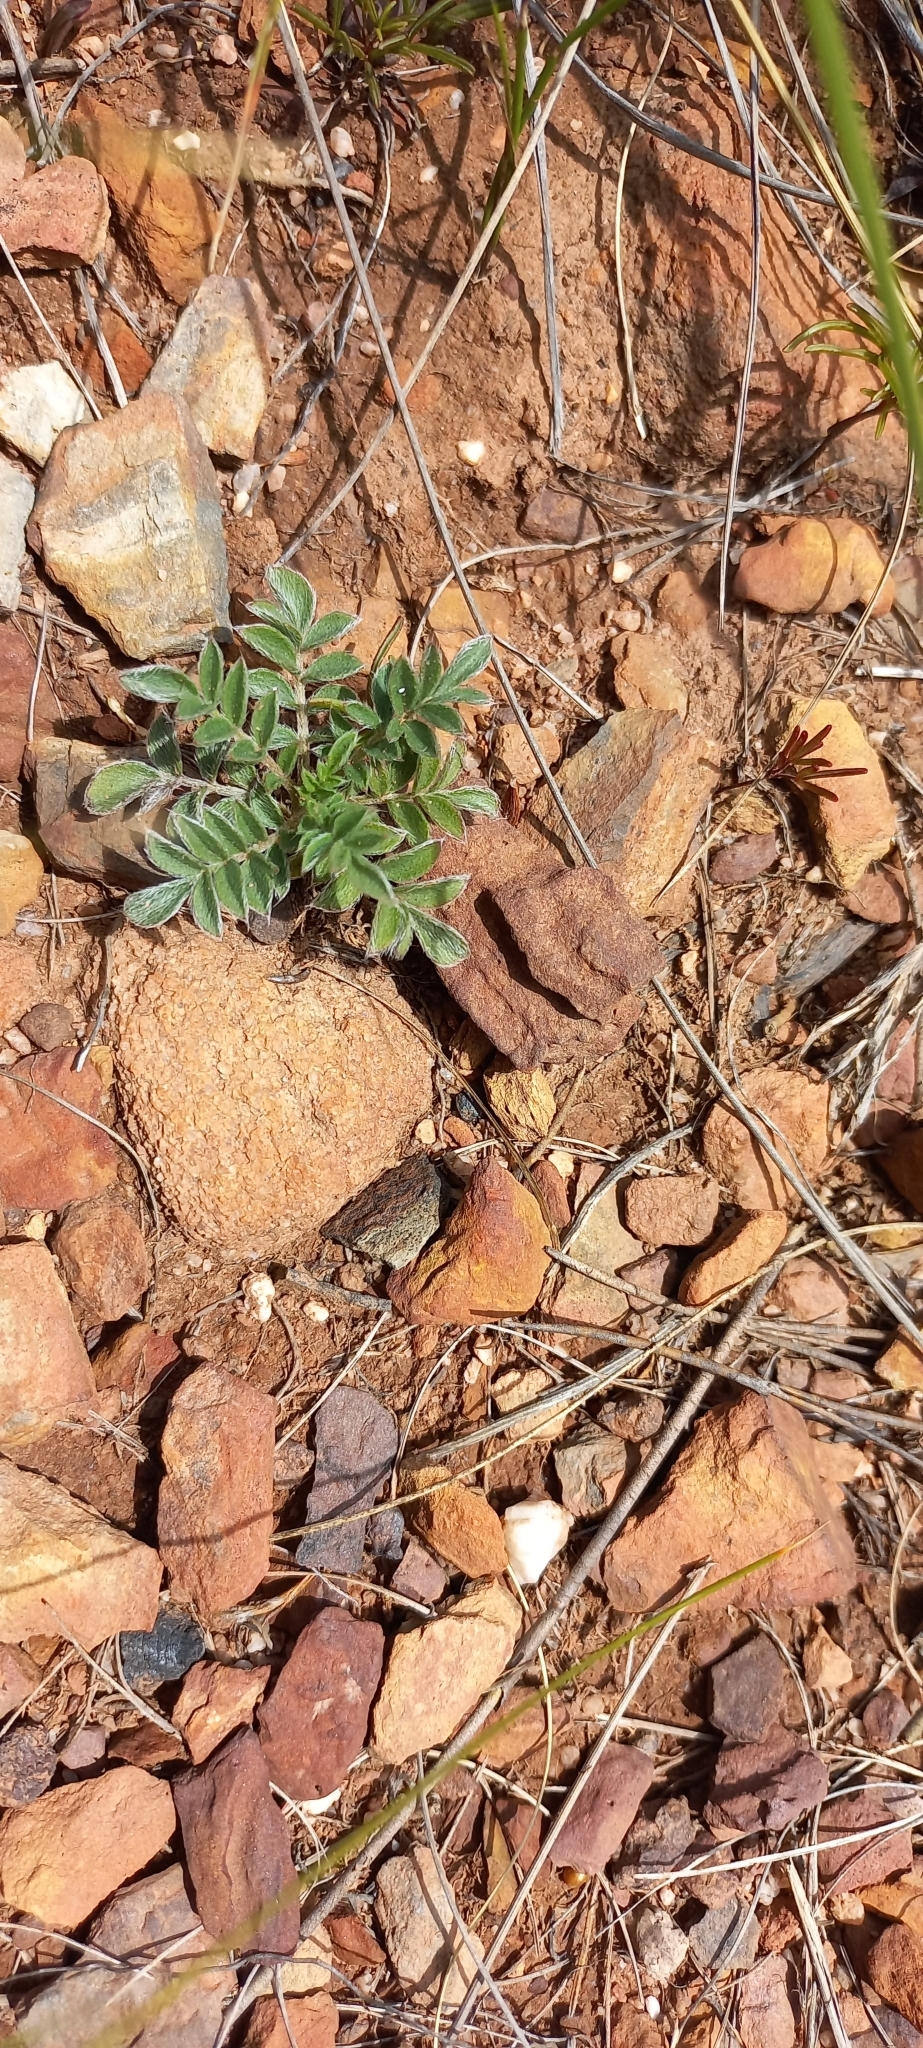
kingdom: Plantae
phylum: Tracheophyta
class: Magnoliopsida
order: Geraniales
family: Geraniaceae
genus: Pelargonium
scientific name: Pelargonium pinnatum
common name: Pinnated pelargonium
